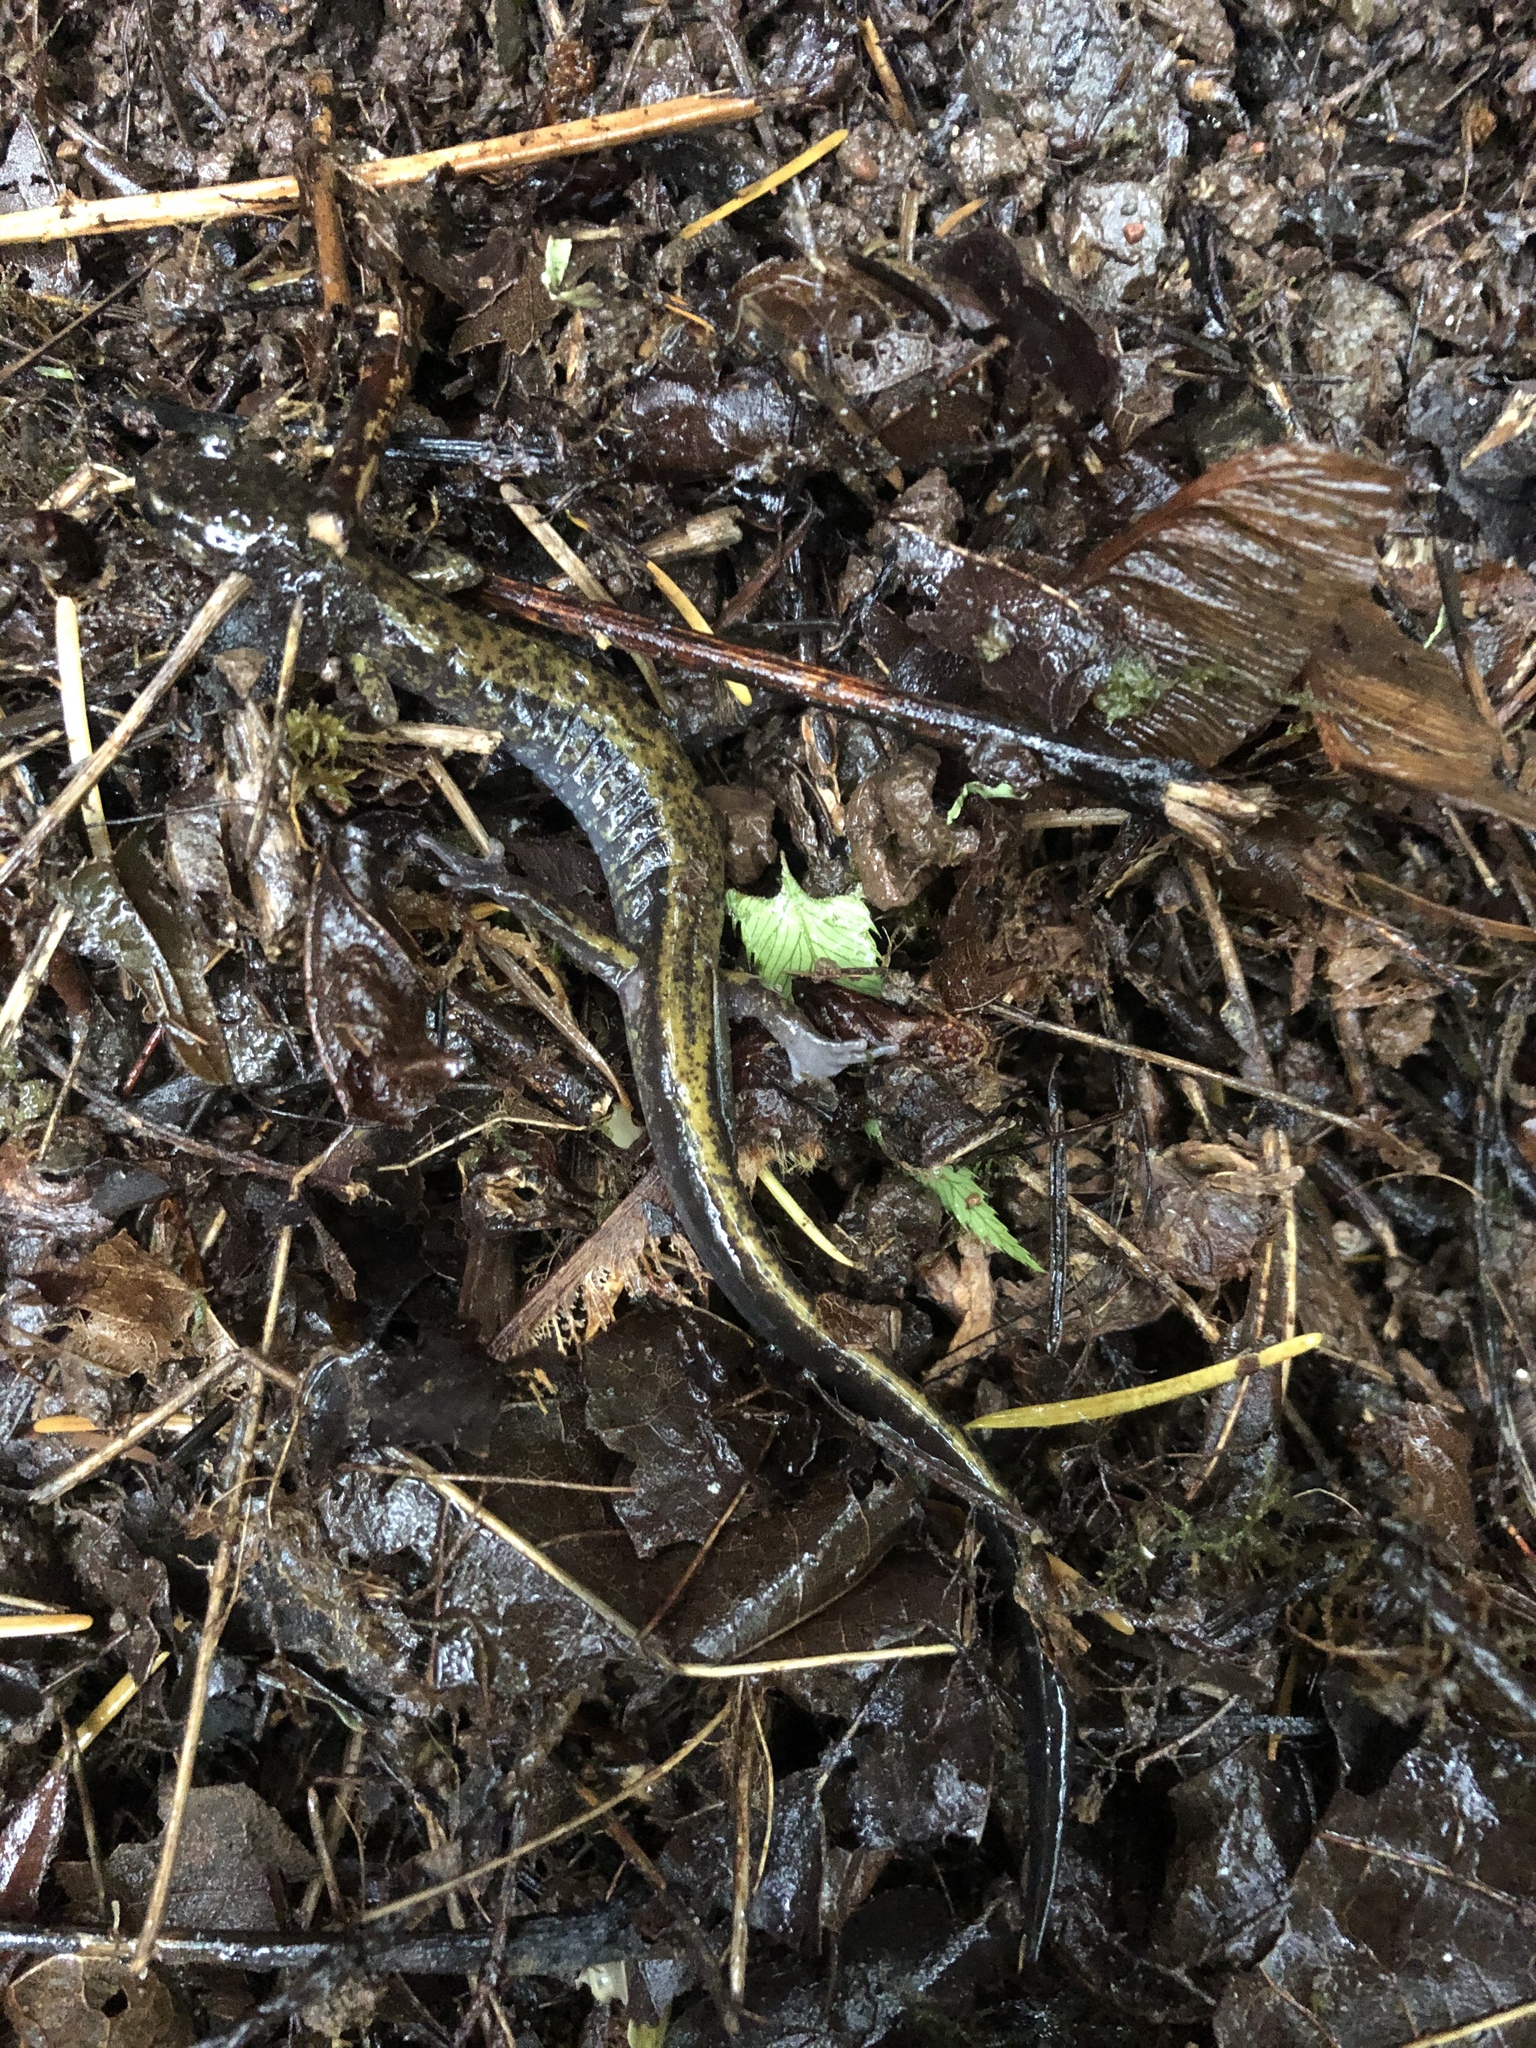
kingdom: Animalia
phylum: Chordata
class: Amphibia
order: Caudata
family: Plethodontidae
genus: Plethodon
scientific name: Plethodon dunni
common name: Dunn's salamander
